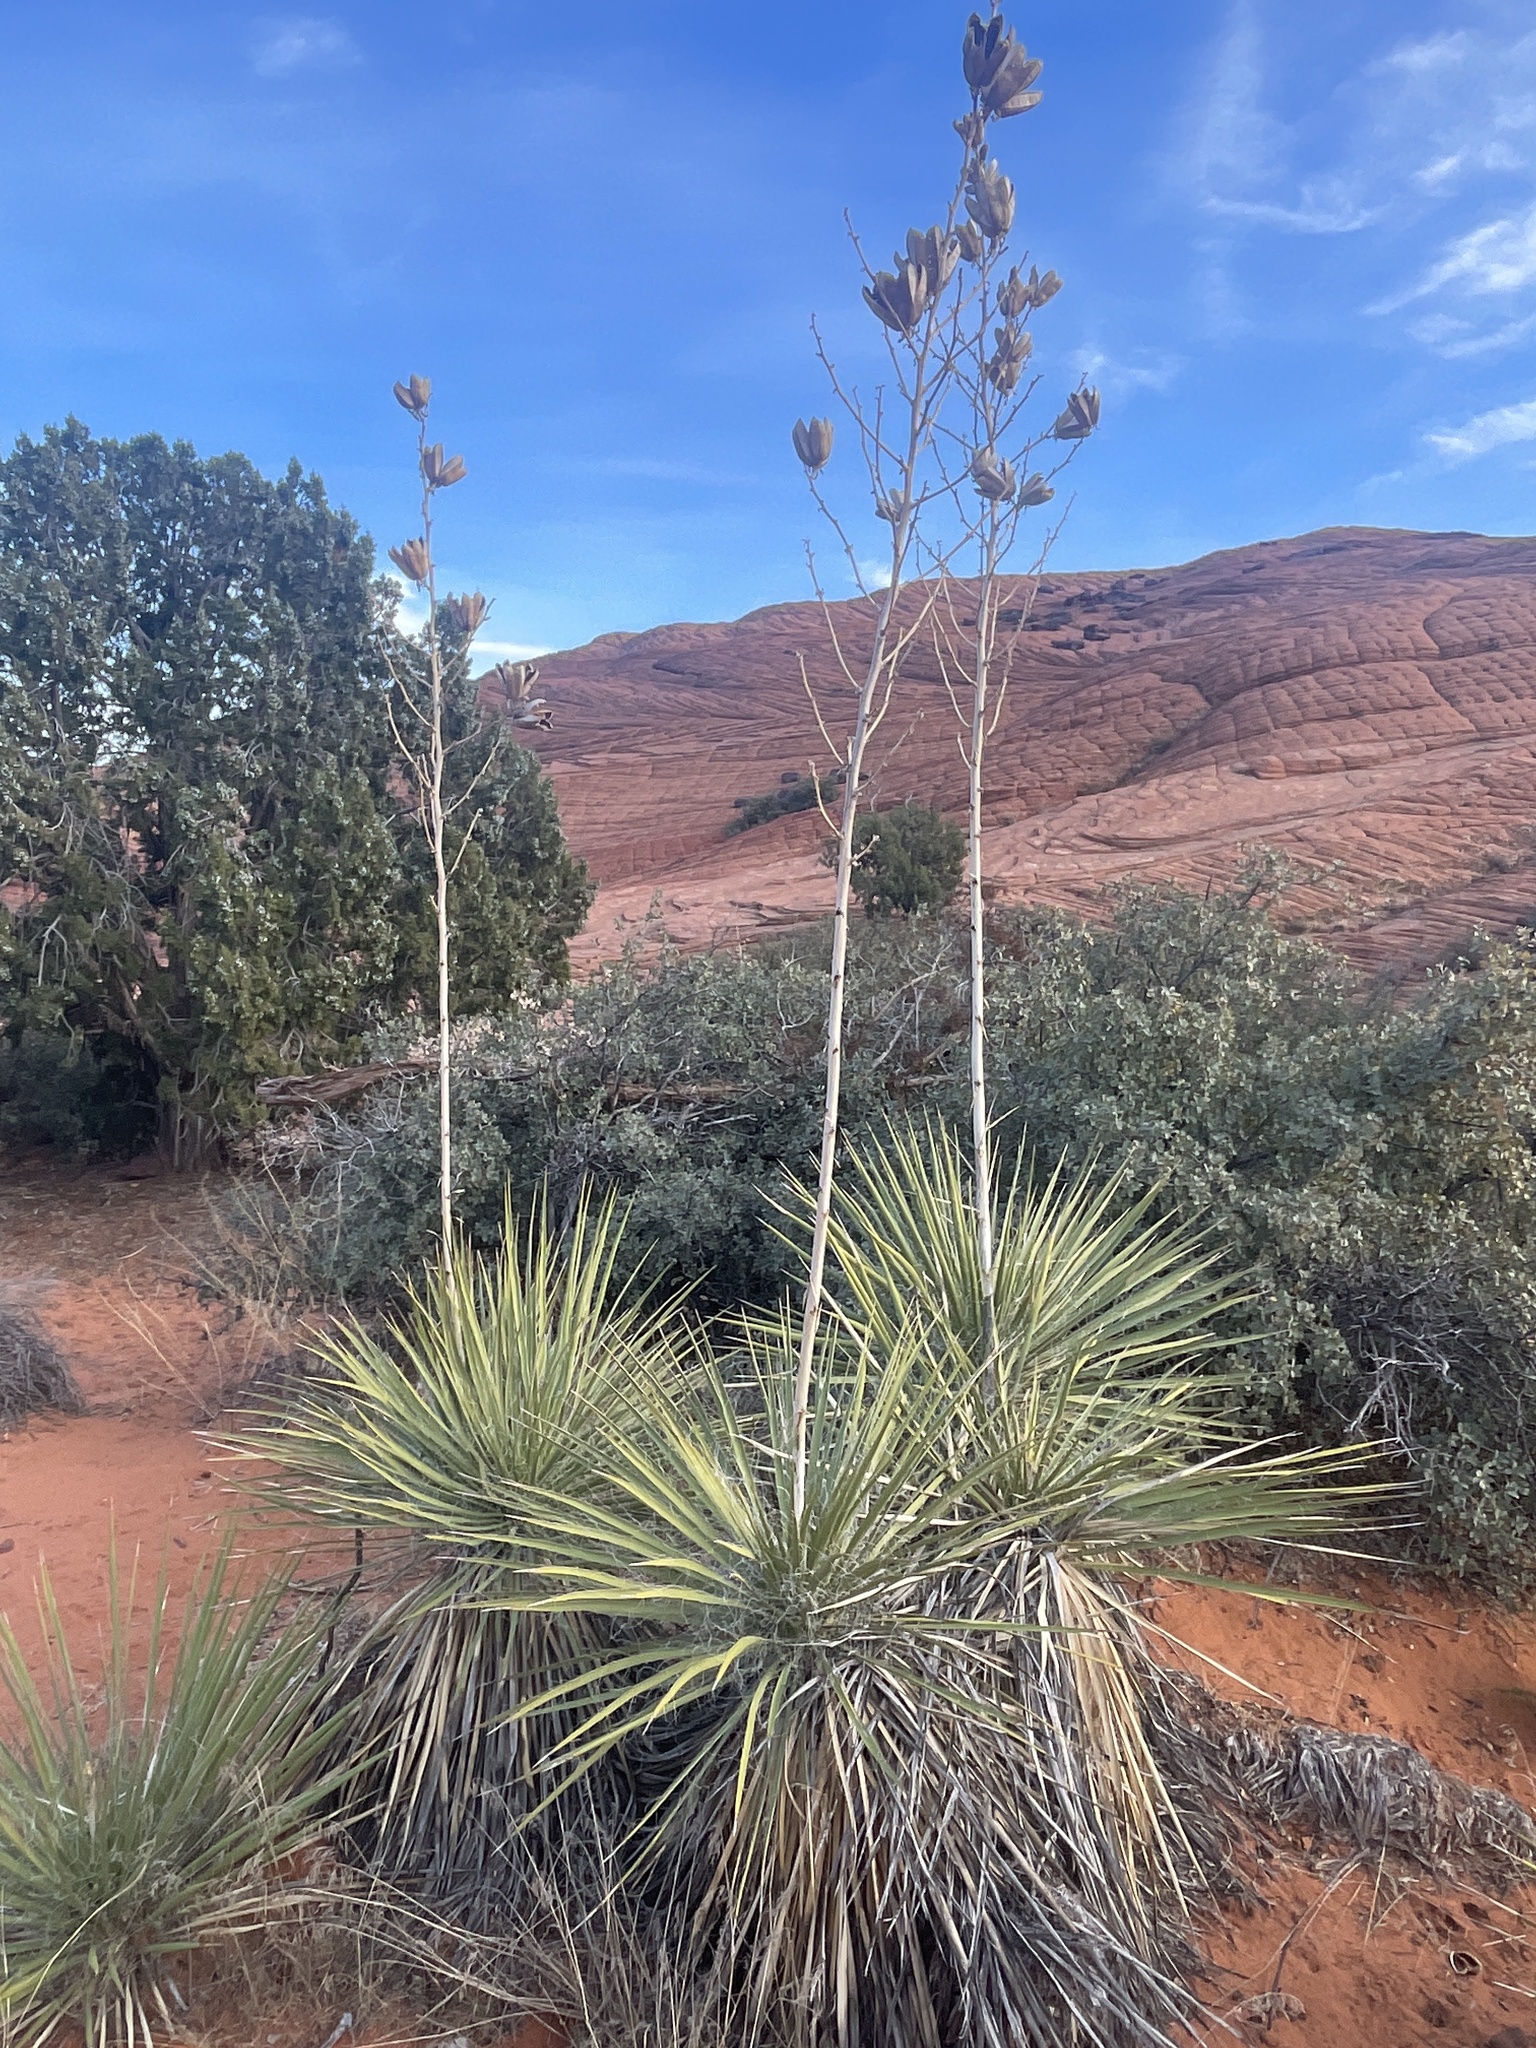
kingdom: Plantae
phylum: Tracheophyta
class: Liliopsida
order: Asparagales
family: Asparagaceae
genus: Yucca
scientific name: Yucca utahensis
